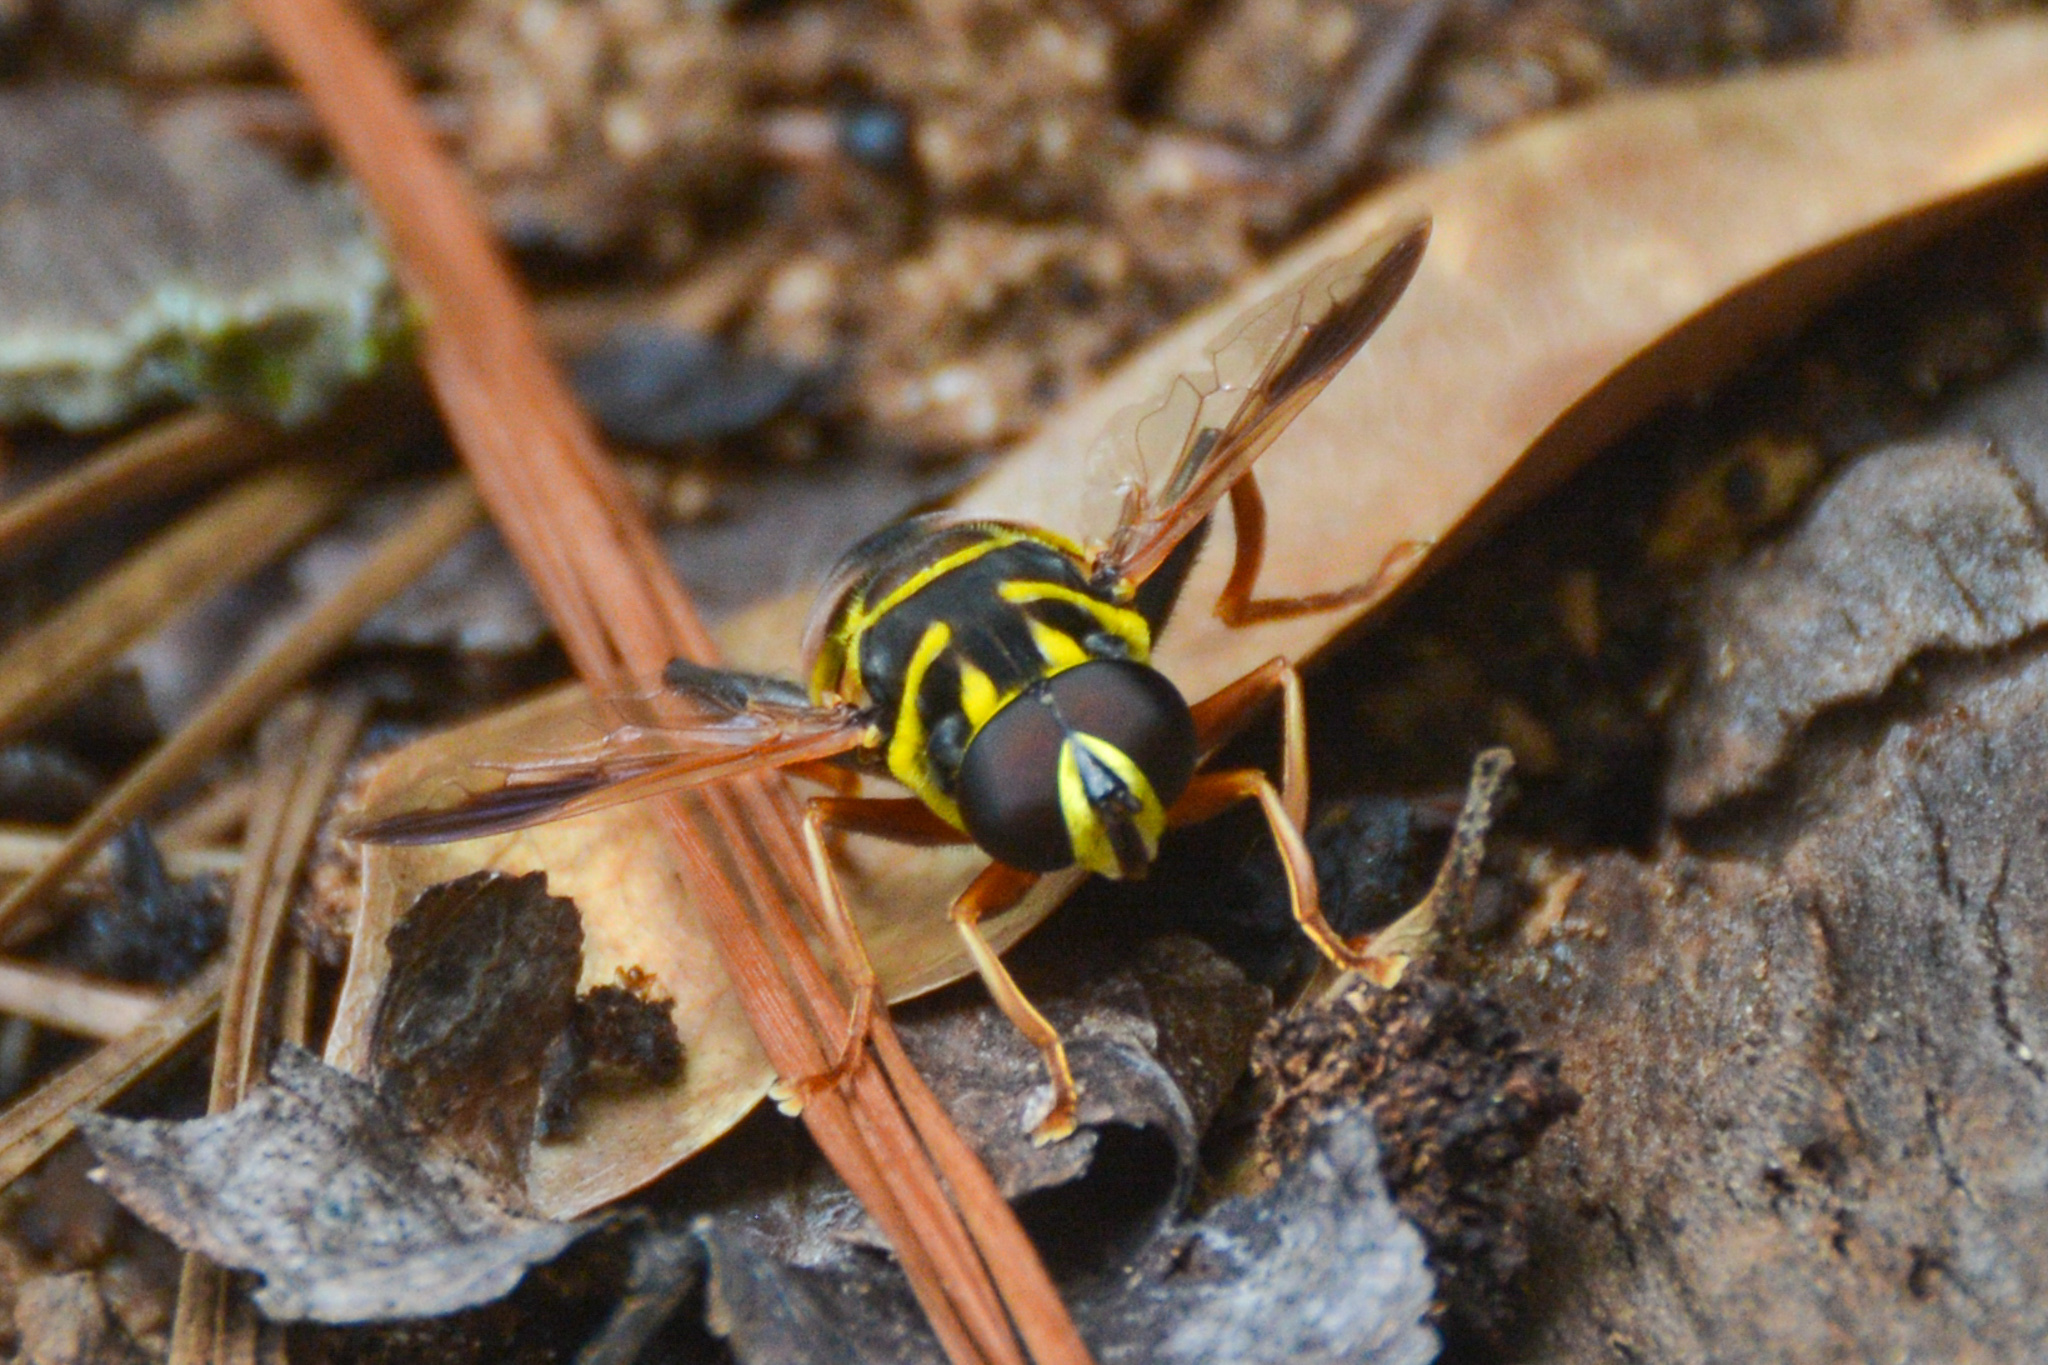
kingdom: Animalia
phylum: Arthropoda
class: Insecta
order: Diptera
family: Syrphidae
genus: Meromacrus
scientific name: Meromacrus acutus
